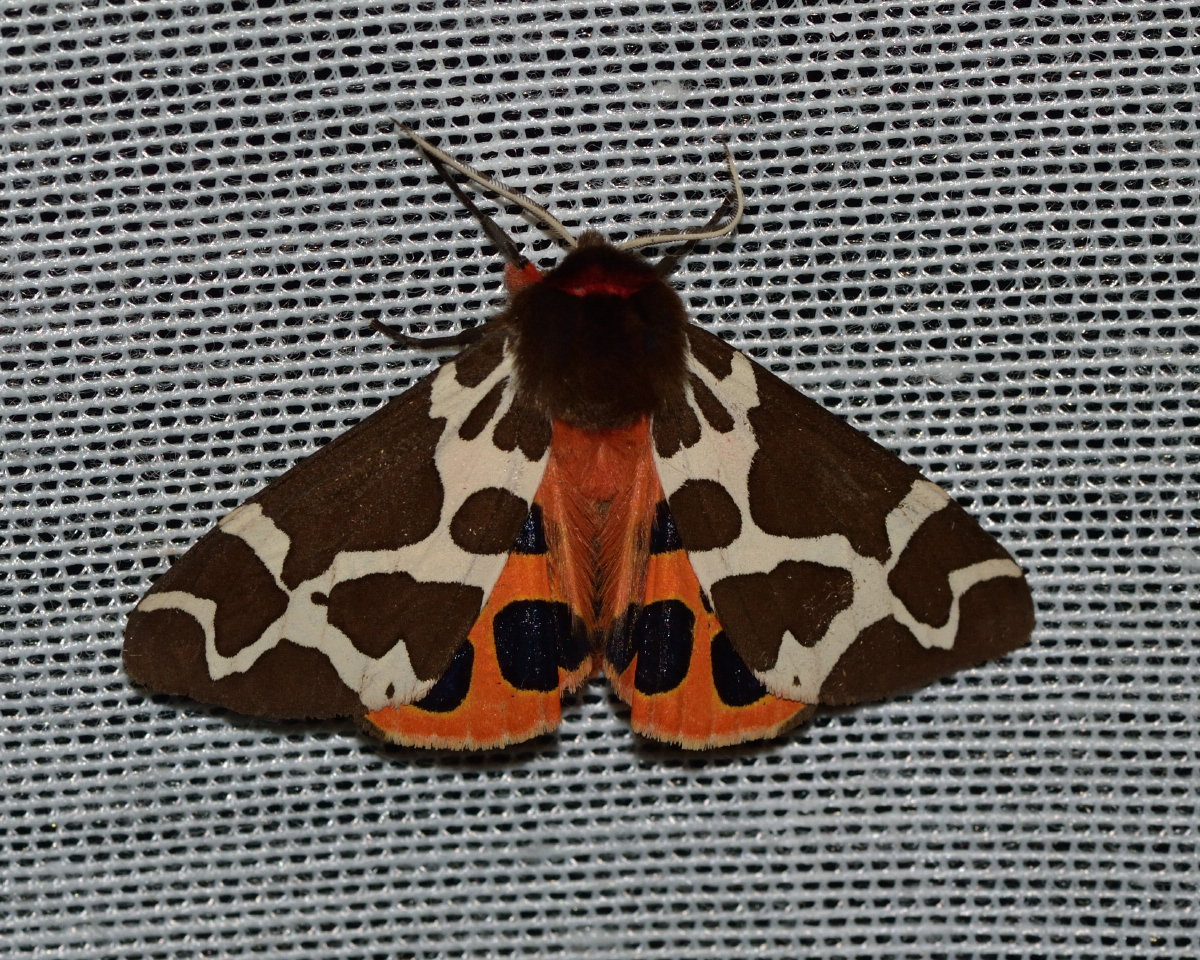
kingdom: Animalia
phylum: Arthropoda
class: Insecta
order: Lepidoptera
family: Erebidae
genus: Arctia
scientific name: Arctia caja
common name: Garden tiger
